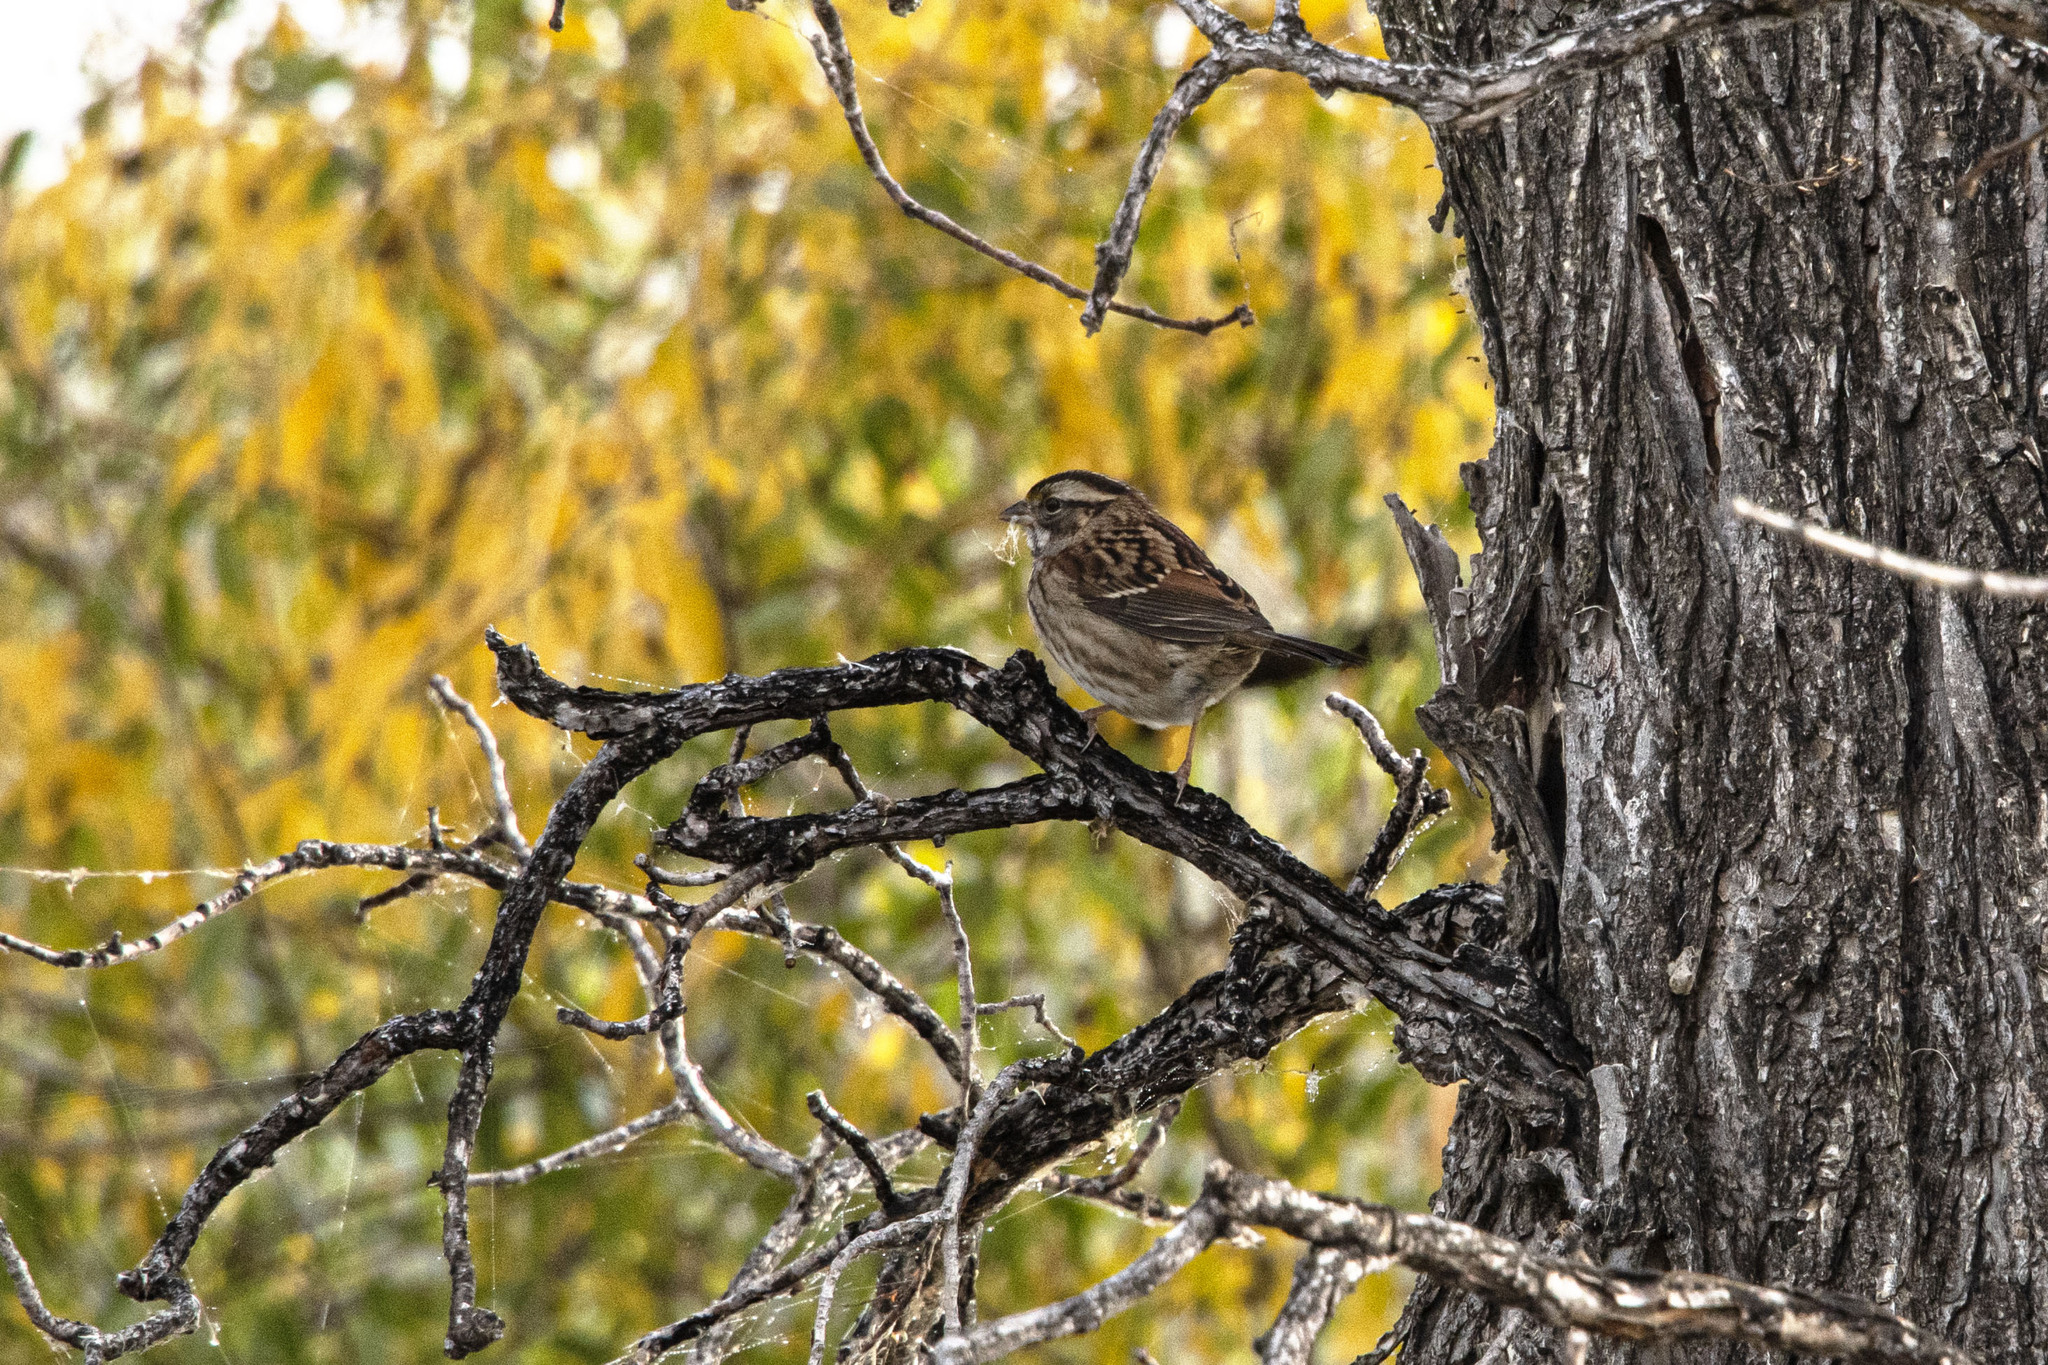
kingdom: Animalia
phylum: Chordata
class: Aves
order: Passeriformes
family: Passerellidae
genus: Zonotrichia
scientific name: Zonotrichia albicollis
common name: White-throated sparrow
